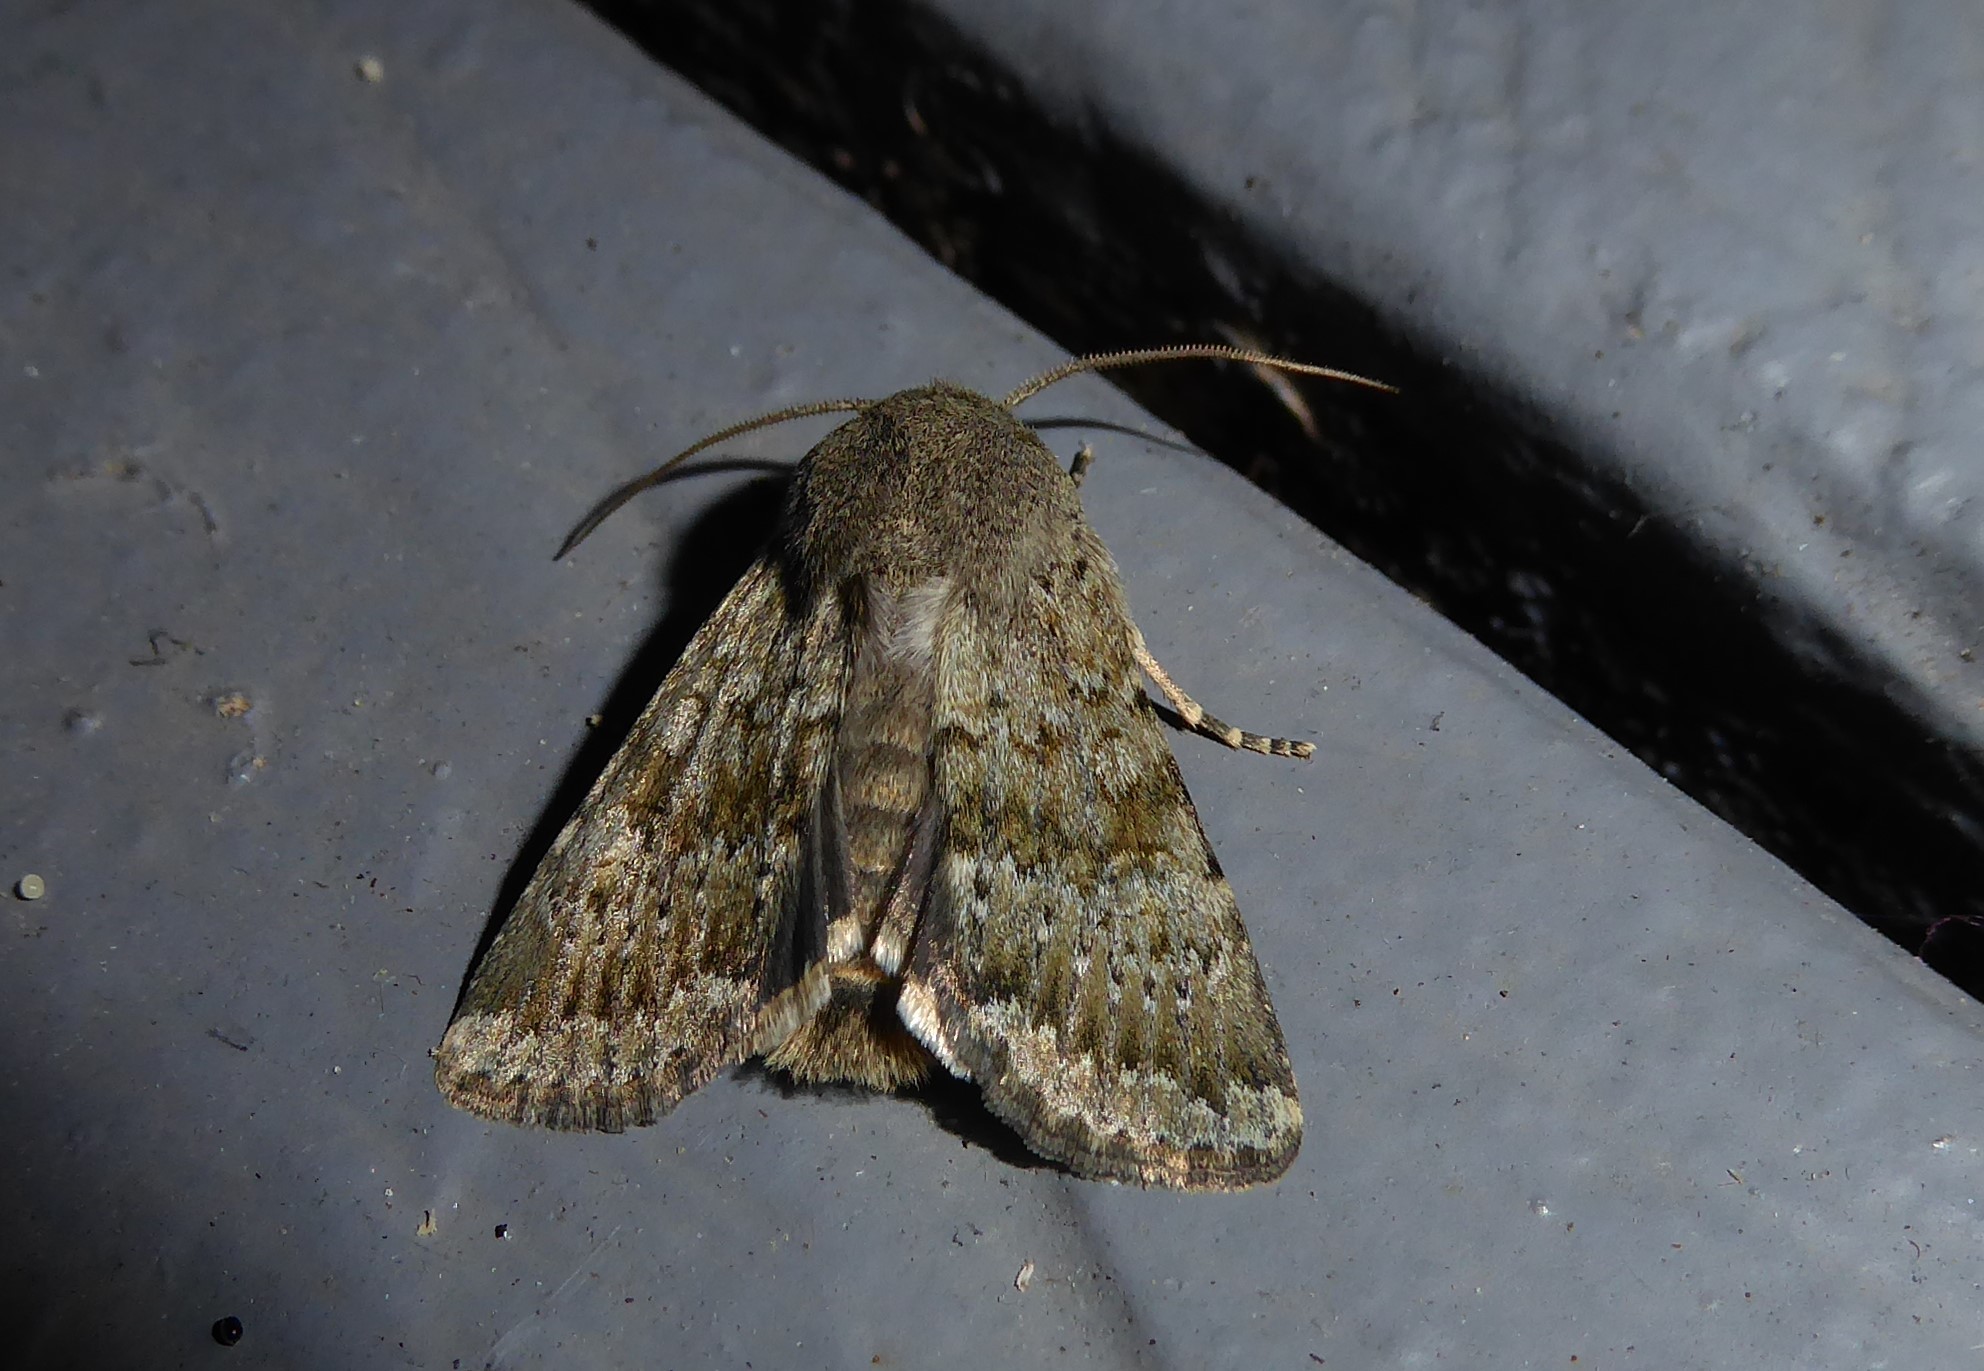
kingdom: Animalia
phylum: Arthropoda
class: Insecta
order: Lepidoptera
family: Noctuidae
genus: Ichneutica
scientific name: Ichneutica moderata
